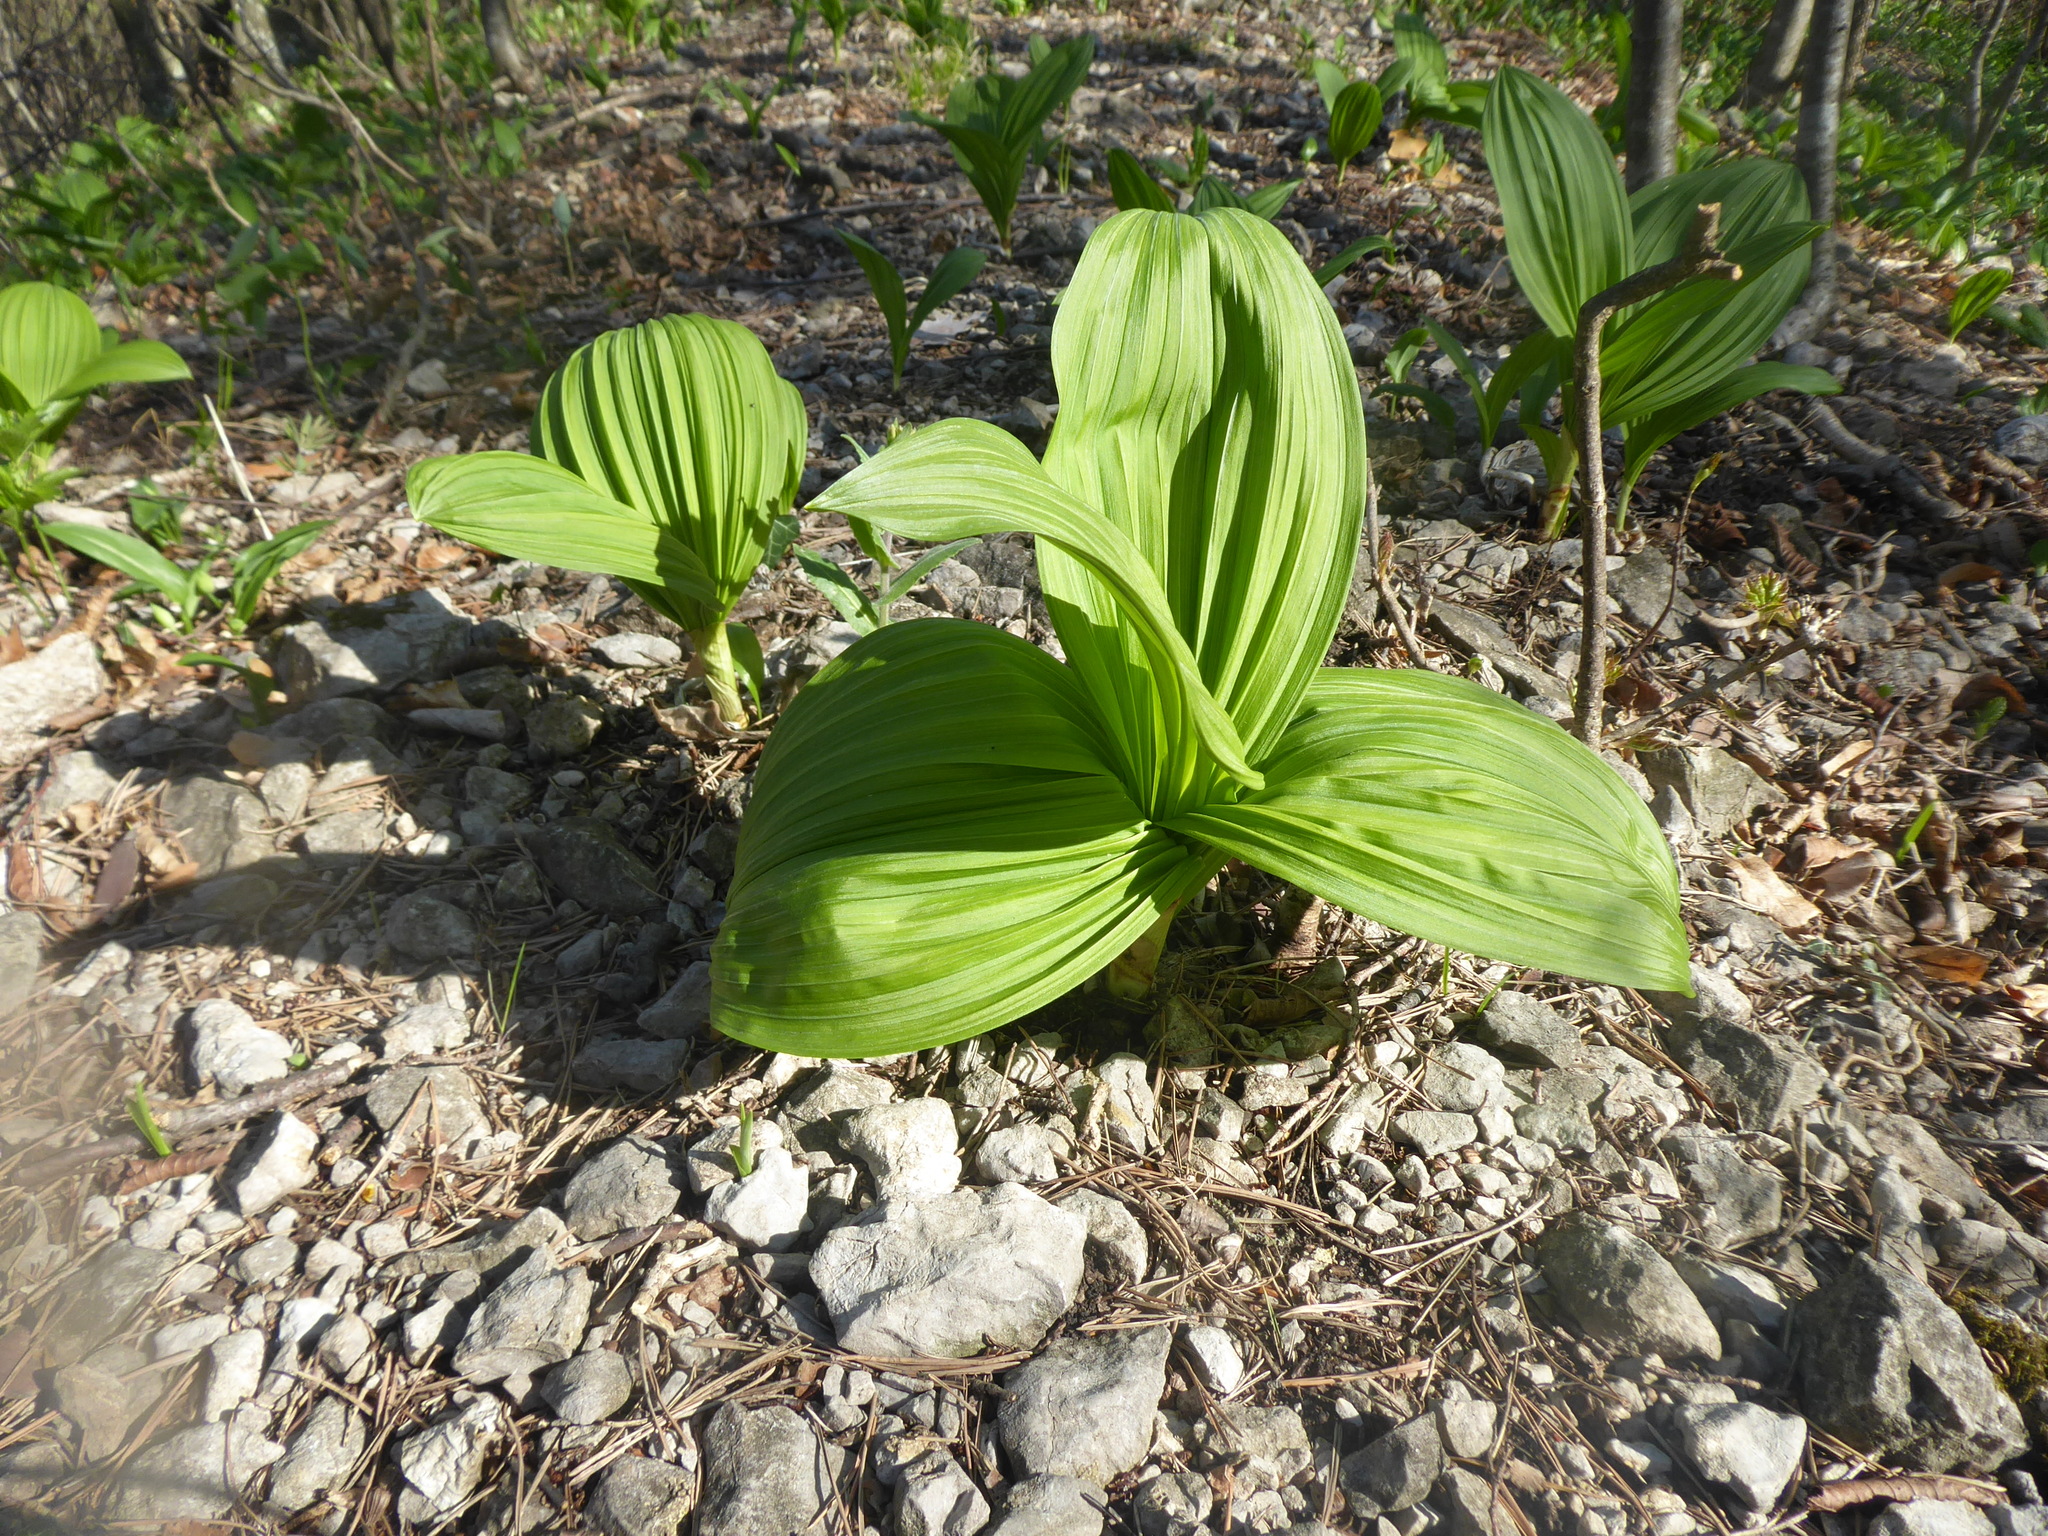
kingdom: Plantae
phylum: Tracheophyta
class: Liliopsida
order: Liliales
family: Melanthiaceae
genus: Veratrum
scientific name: Veratrum nigrum
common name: Black veratrum
